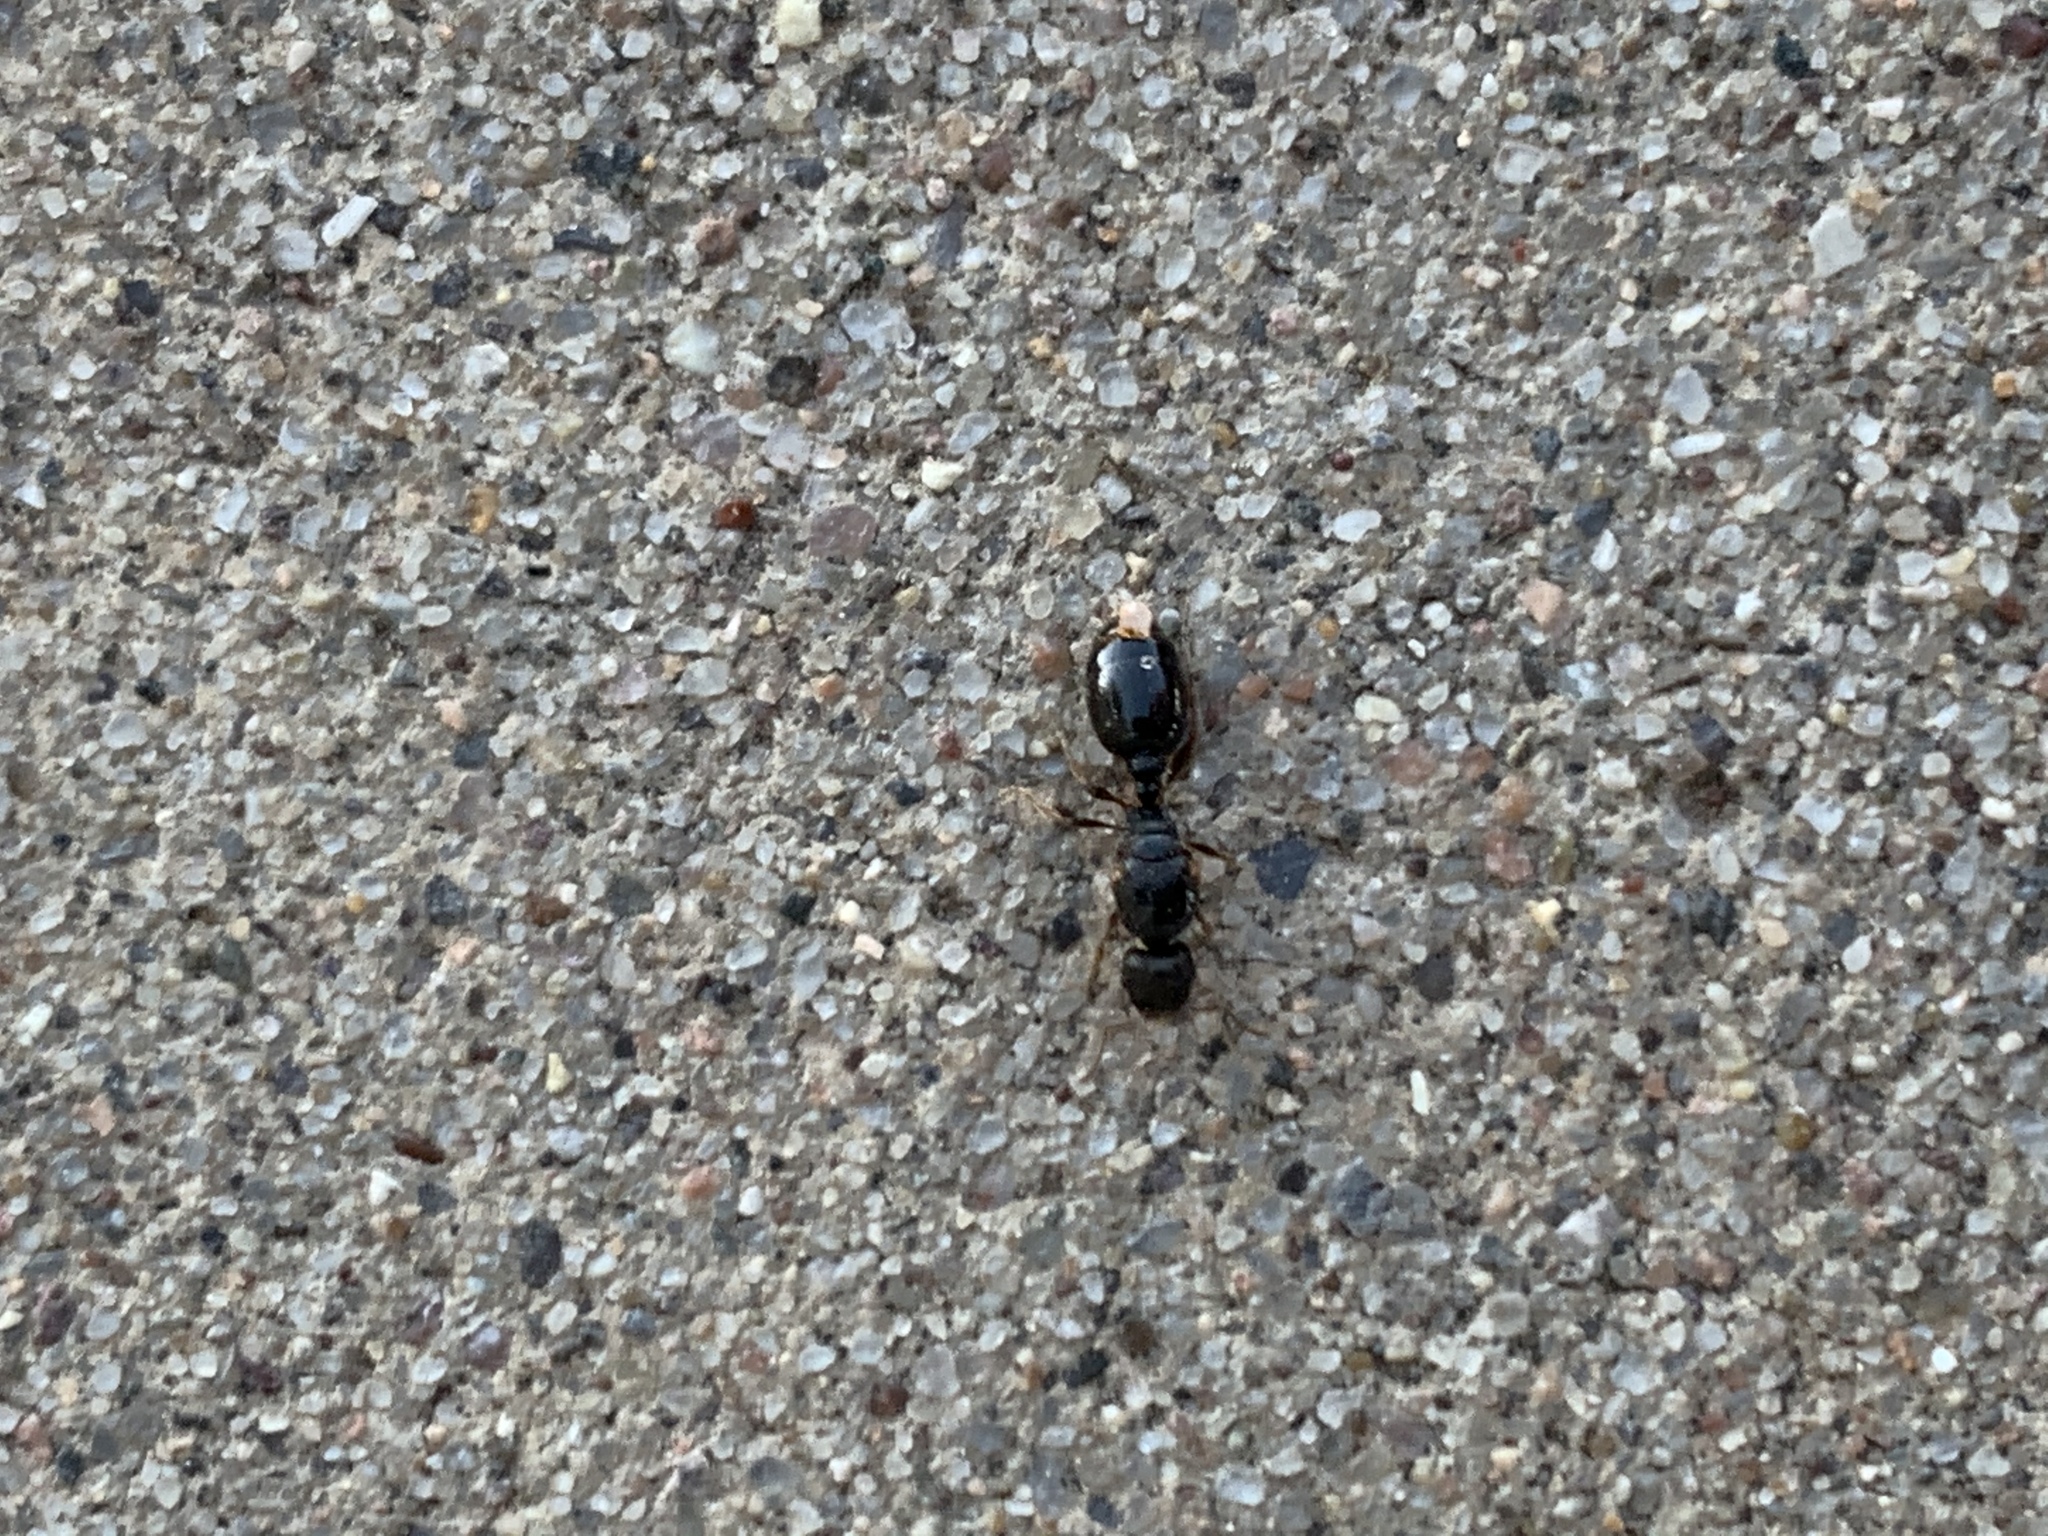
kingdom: Animalia
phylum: Arthropoda
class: Insecta
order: Hymenoptera
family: Formicidae
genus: Tetramorium
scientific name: Tetramorium immigrans
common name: Pavement ant
